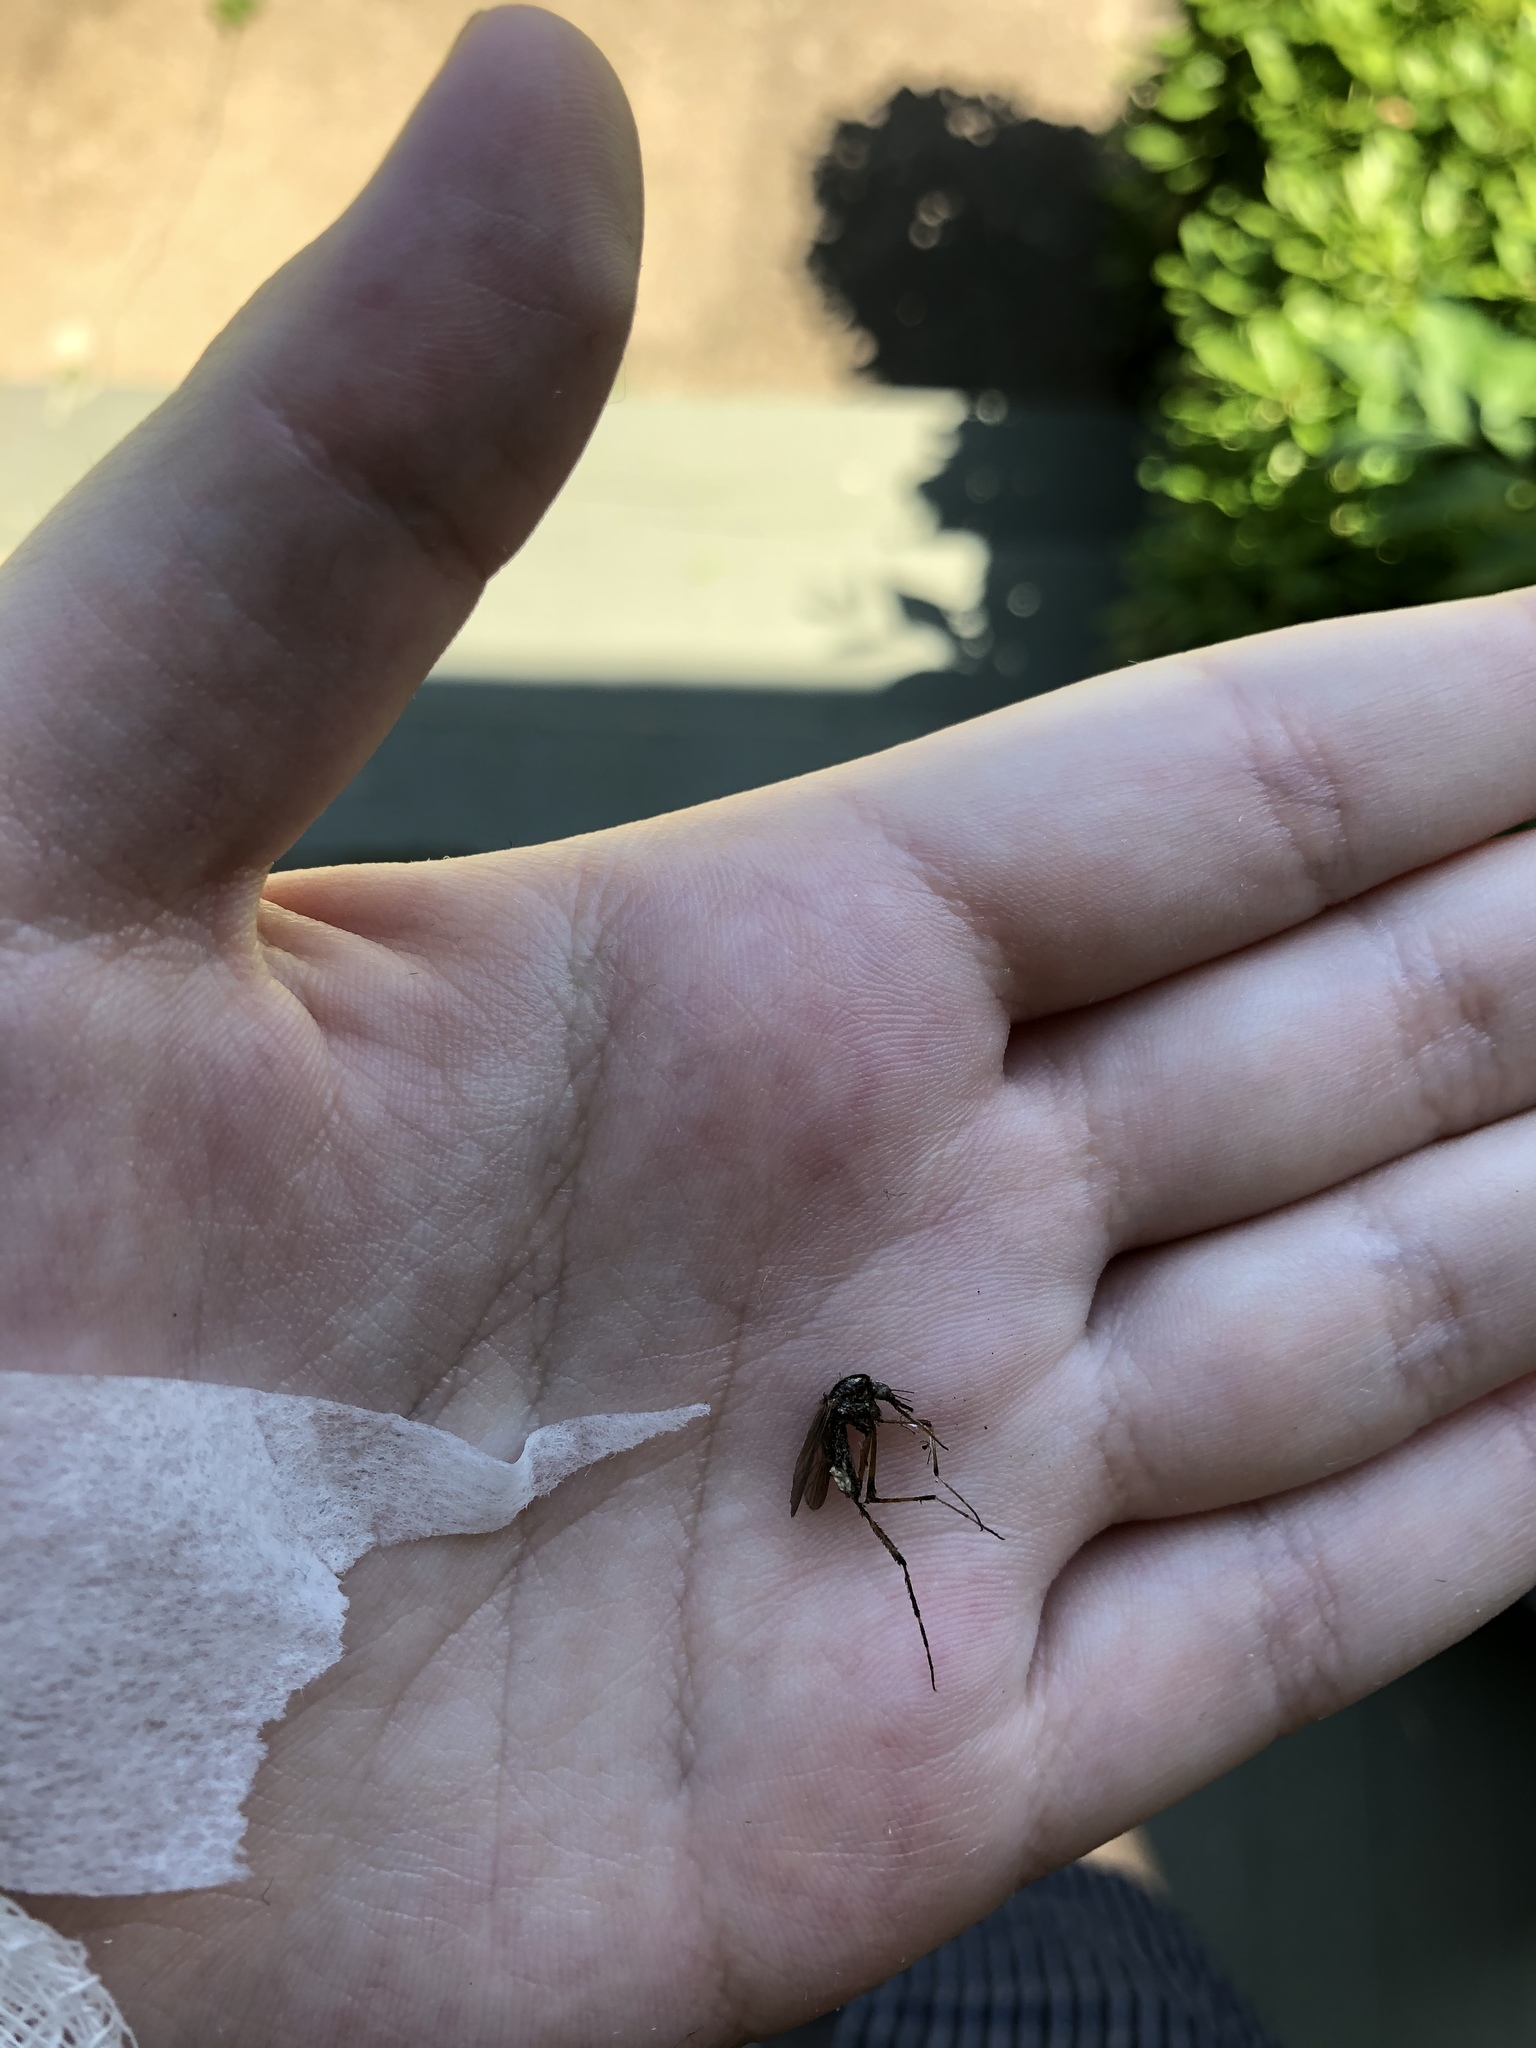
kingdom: Animalia
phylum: Arthropoda
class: Insecta
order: Diptera
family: Culicidae
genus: Psorophora
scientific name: Psorophora ciliata
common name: Gallinipper
